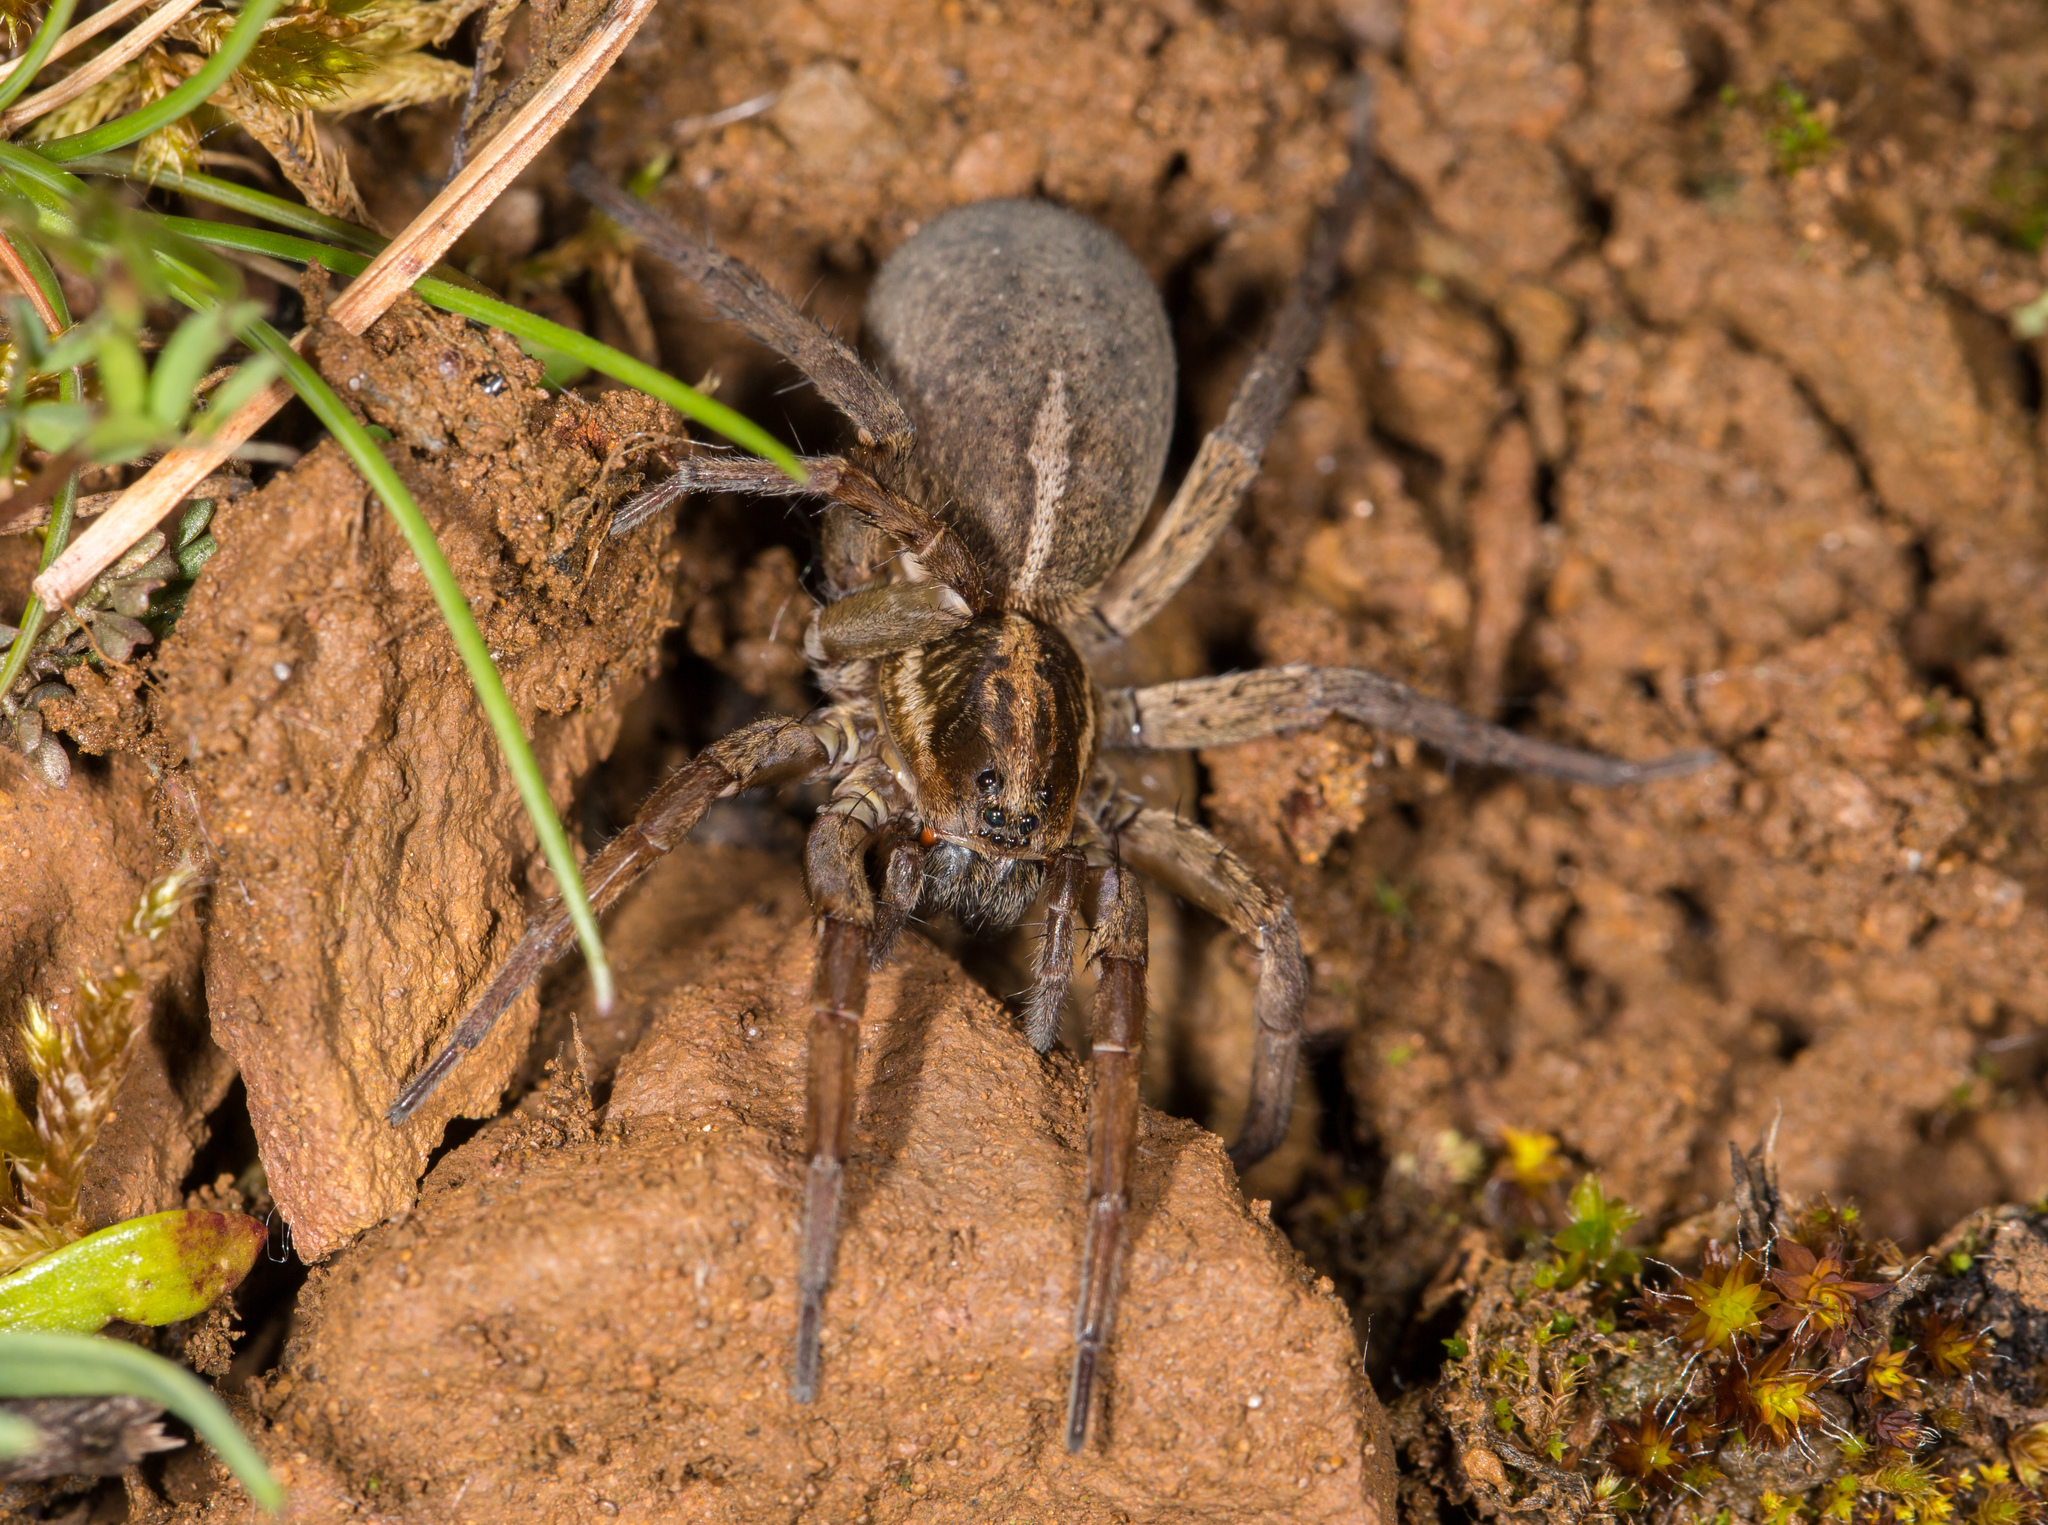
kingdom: Animalia
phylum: Arthropoda
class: Arachnida
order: Araneae
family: Lycosidae
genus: Trochosa
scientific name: Trochosa robusta
